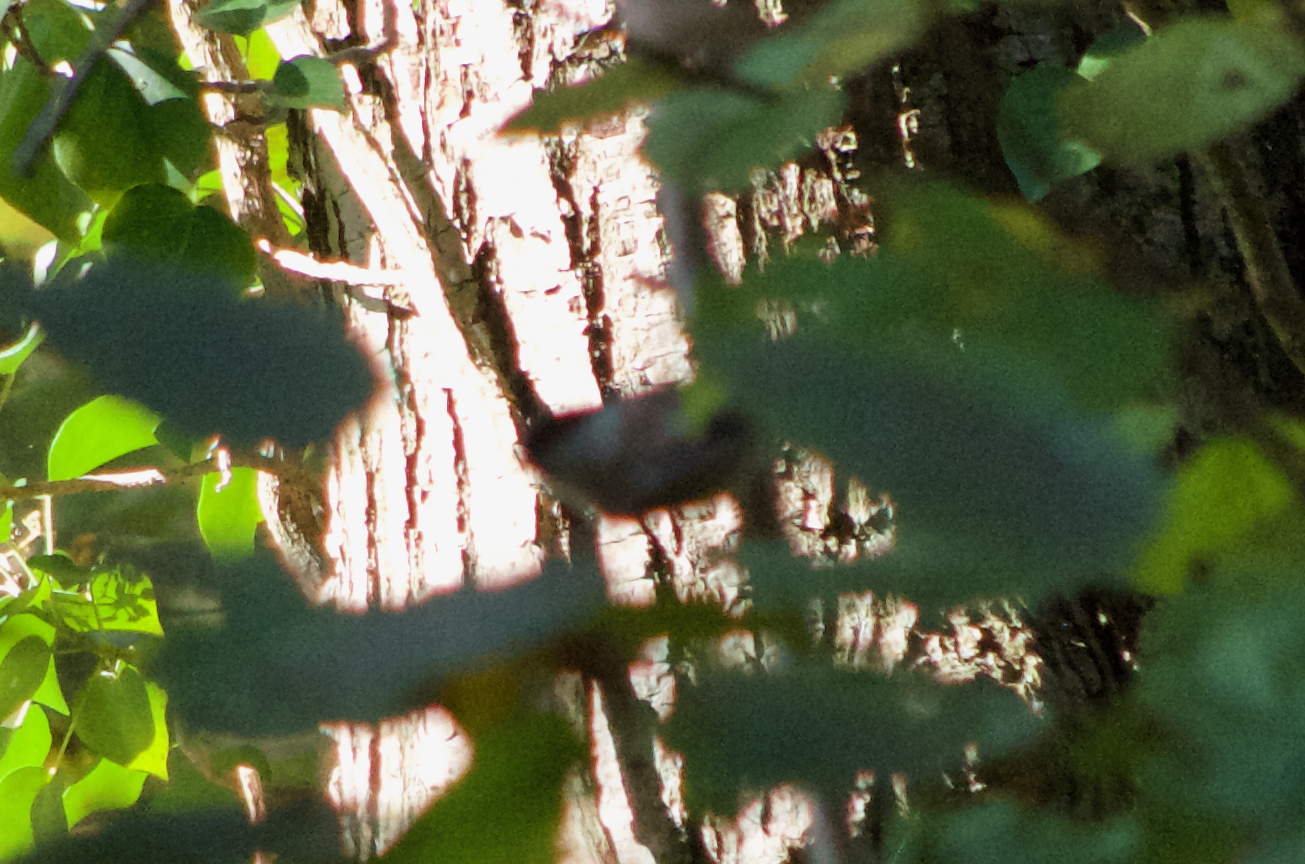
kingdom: Animalia
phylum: Chordata
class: Aves
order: Passeriformes
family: Paridae
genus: Poecile
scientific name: Poecile palustris
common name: Marsh tit
